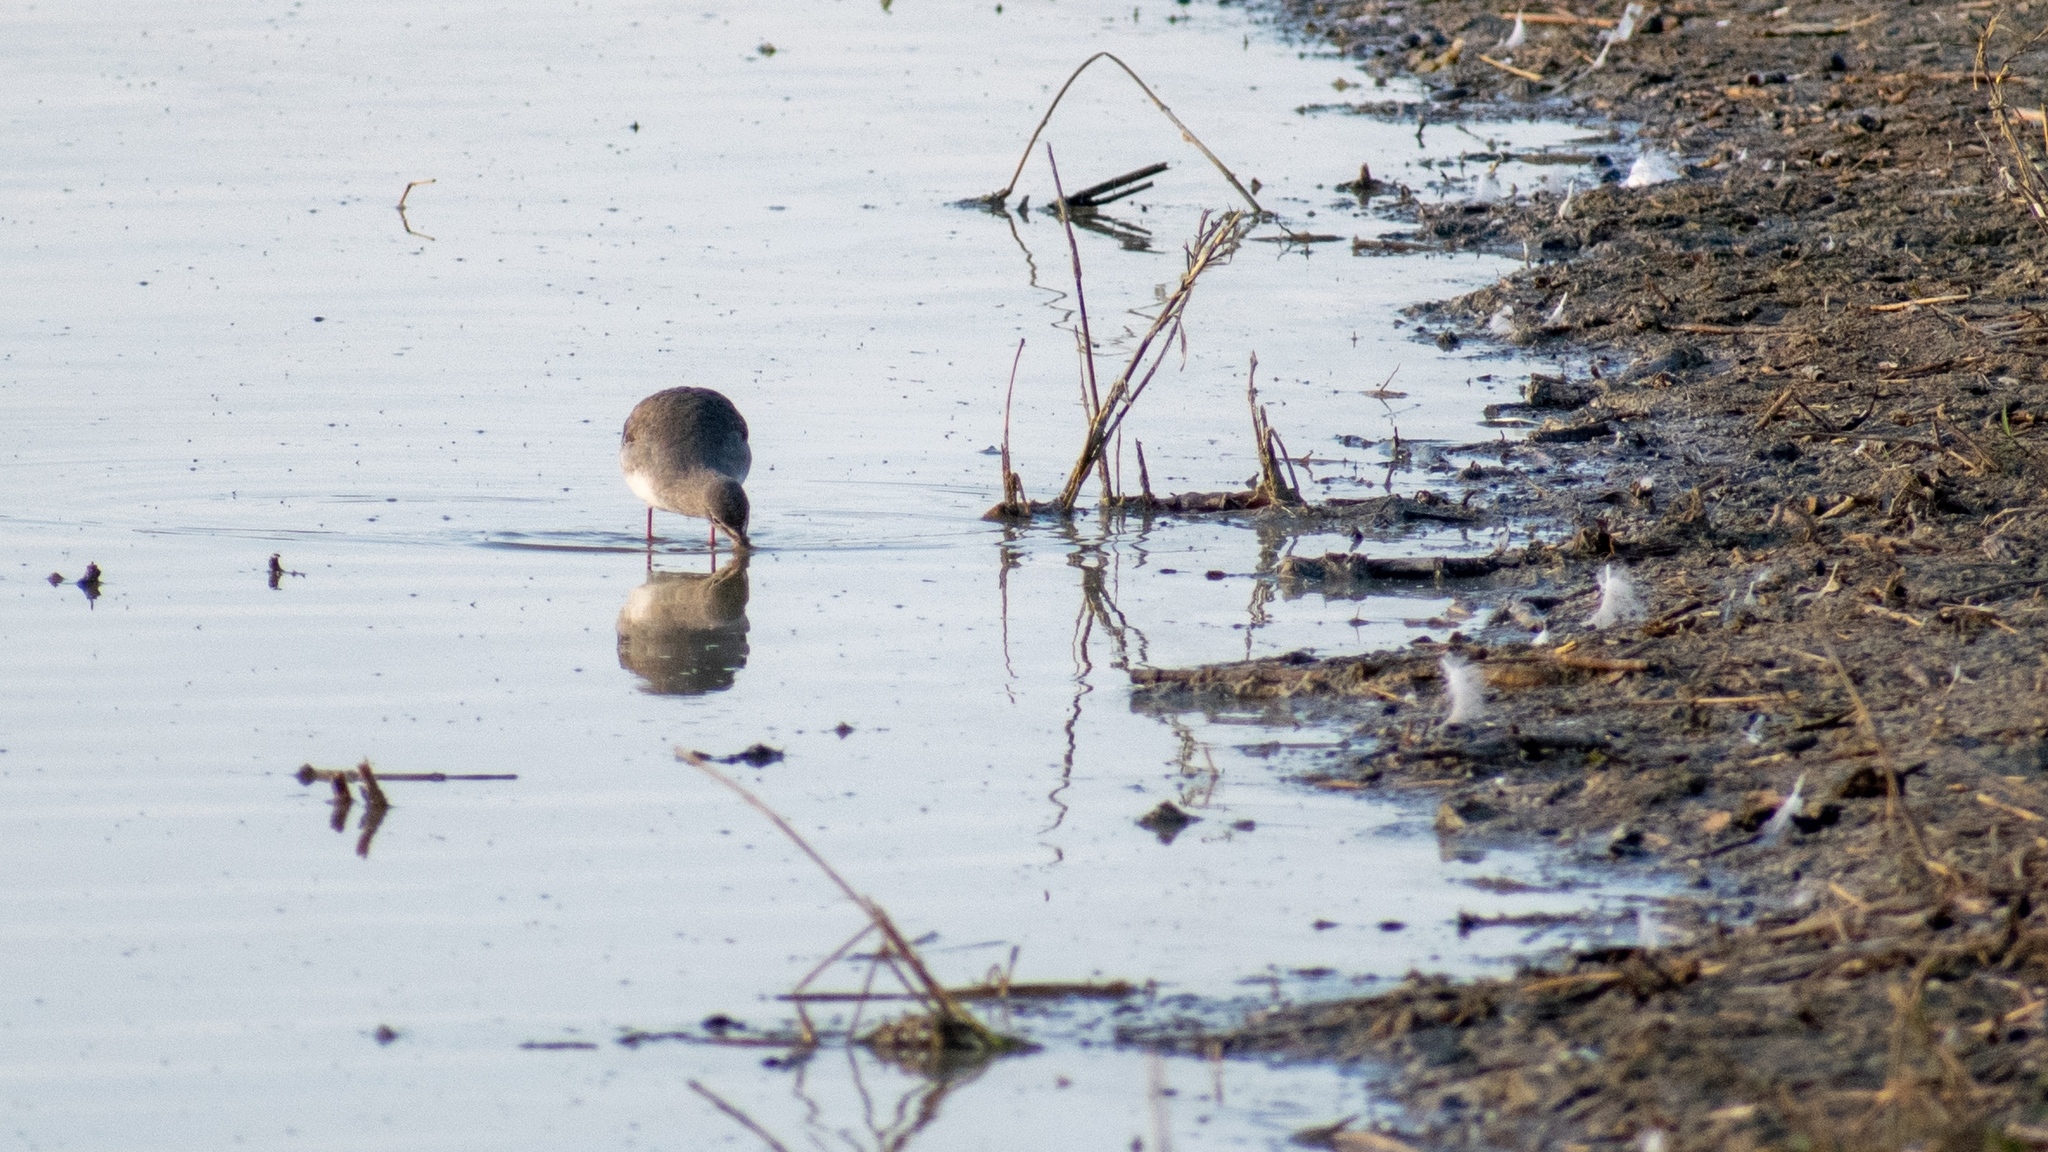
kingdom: Animalia
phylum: Chordata
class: Aves
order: Charadriiformes
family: Scolopacidae
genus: Tringa
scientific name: Tringa erythropus
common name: Spotted redshank
